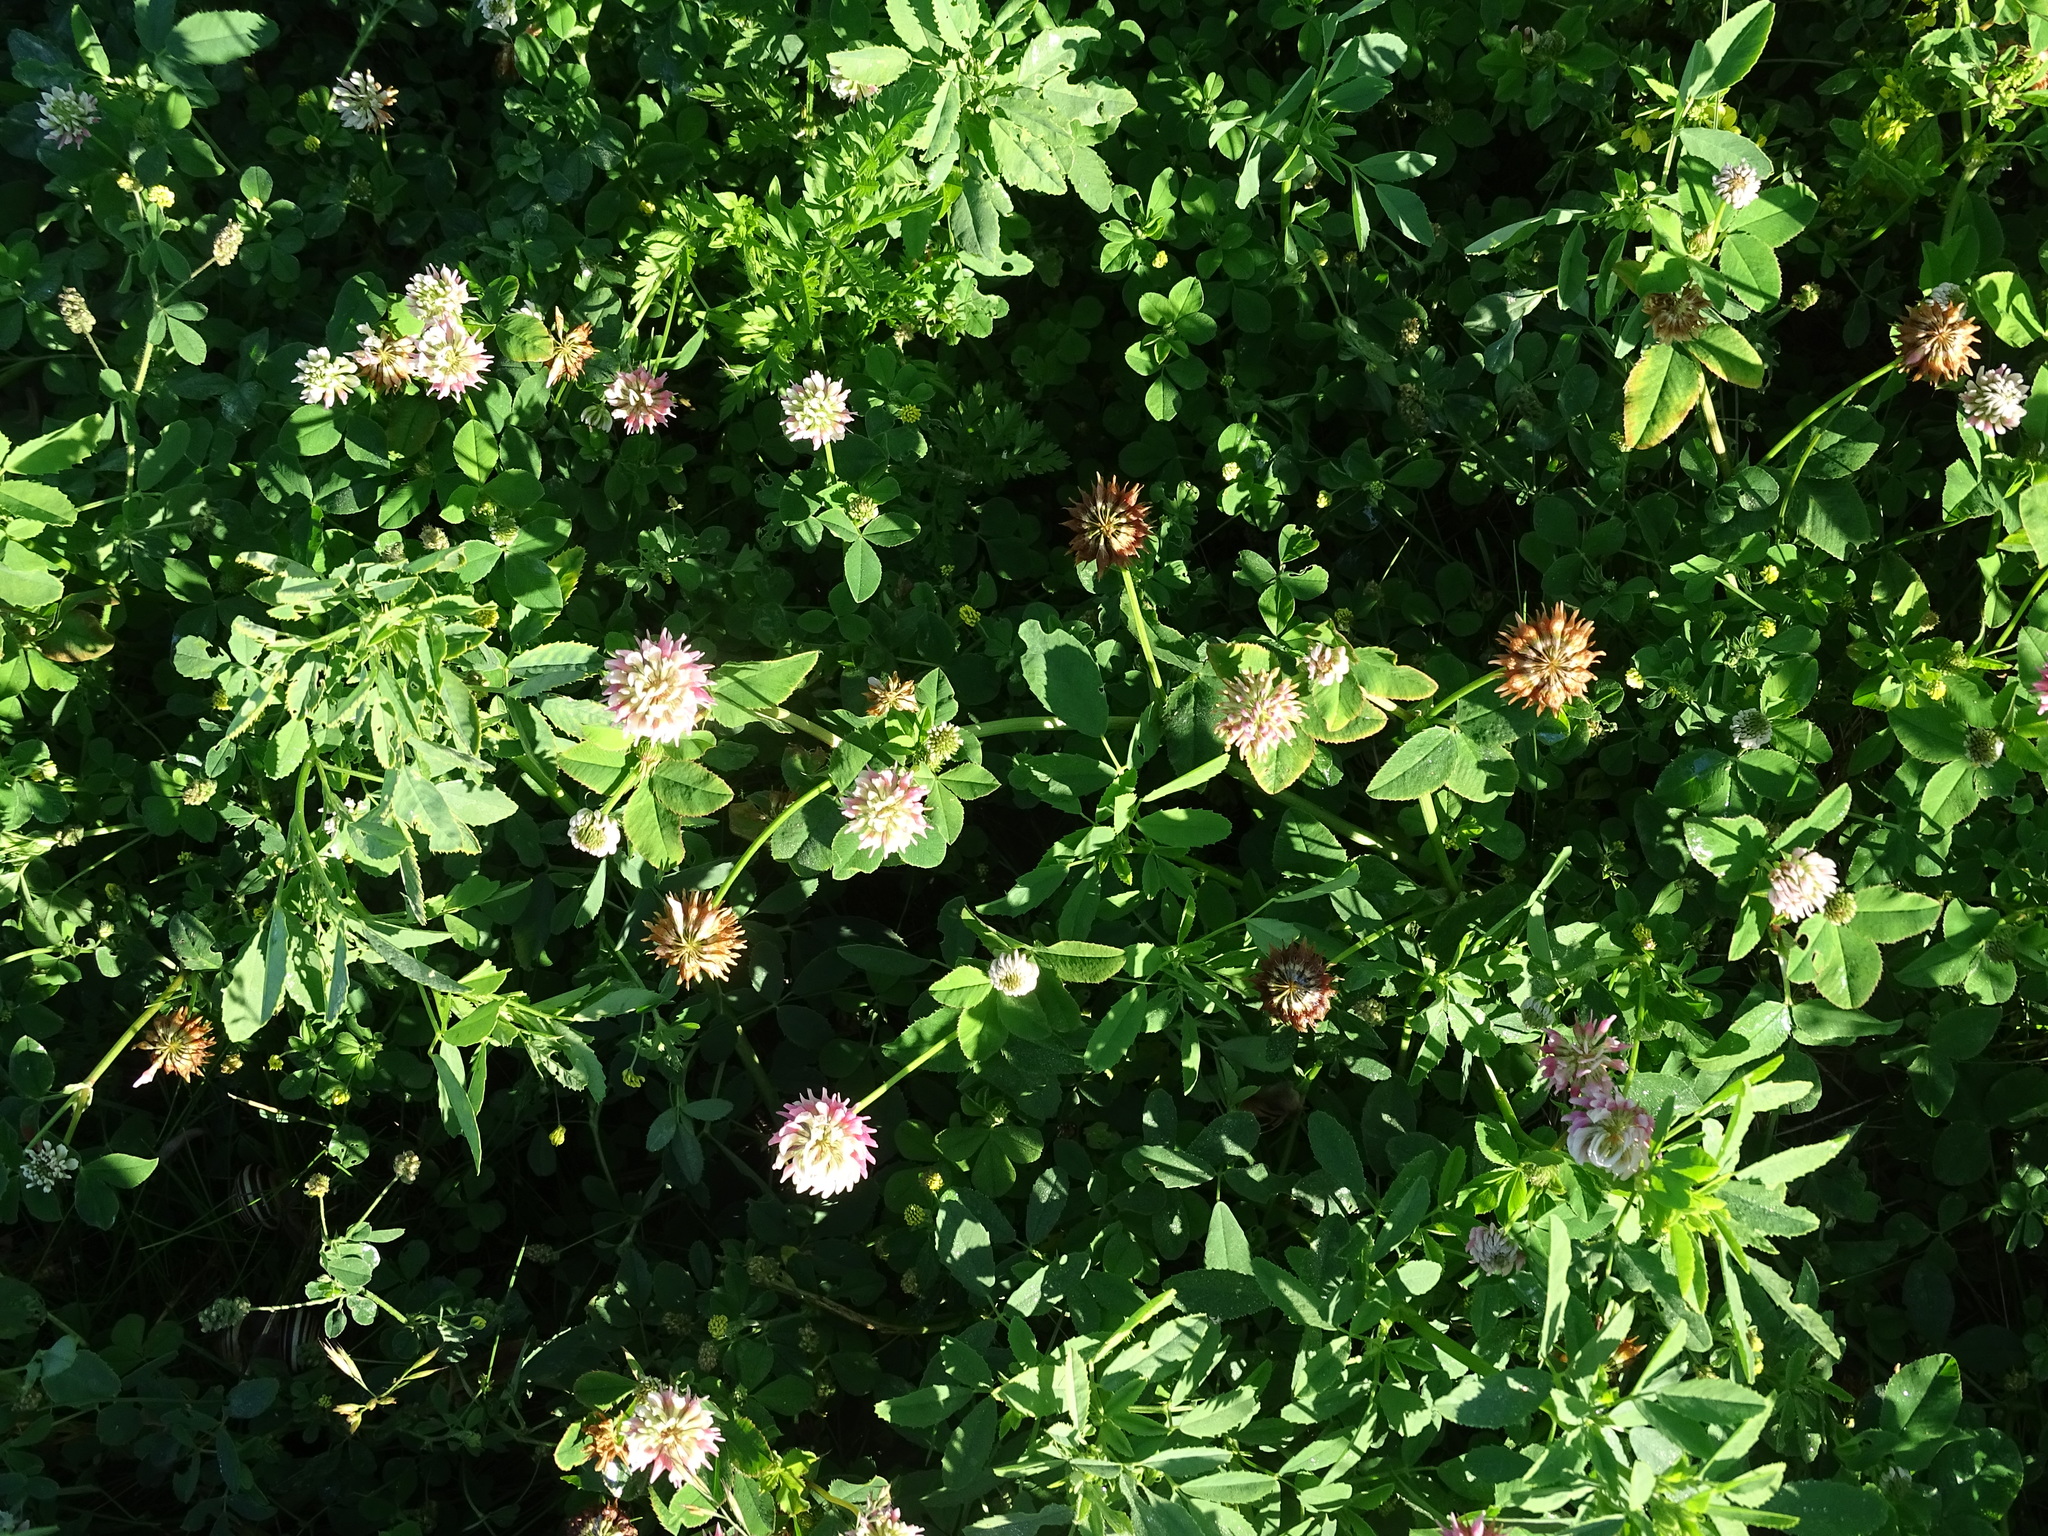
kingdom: Plantae
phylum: Tracheophyta
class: Magnoliopsida
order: Fabales
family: Fabaceae
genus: Trifolium
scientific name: Trifolium hybridum
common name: Alsike clover
